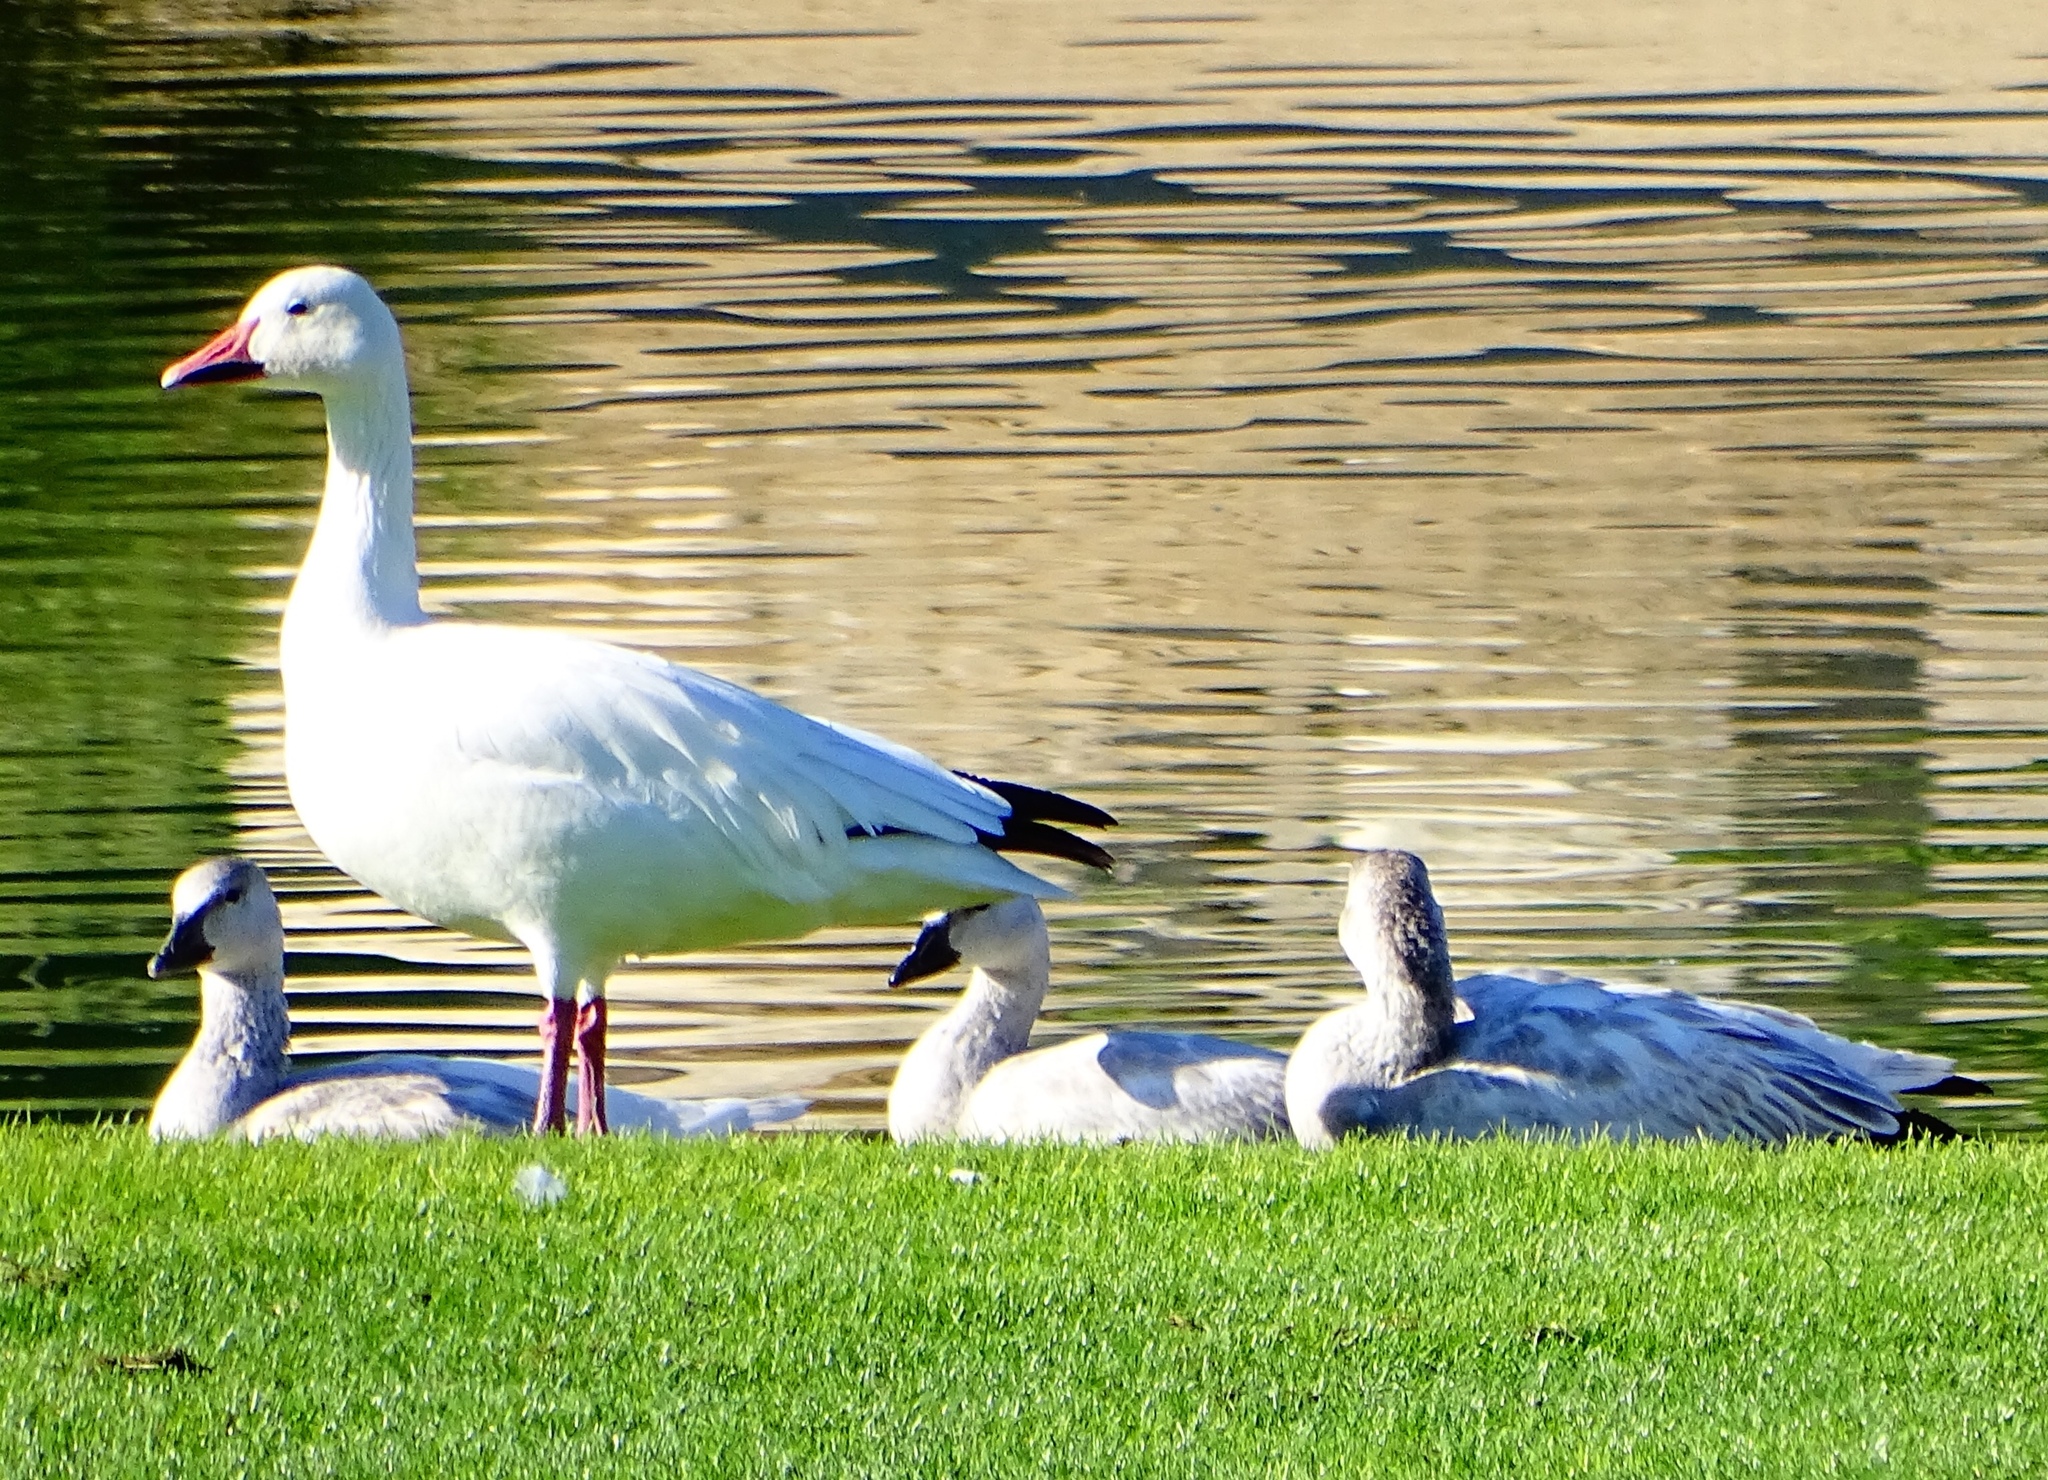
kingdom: Animalia
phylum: Chordata
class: Aves
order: Anseriformes
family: Anatidae
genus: Anser
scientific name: Anser caerulescens
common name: Snow goose
